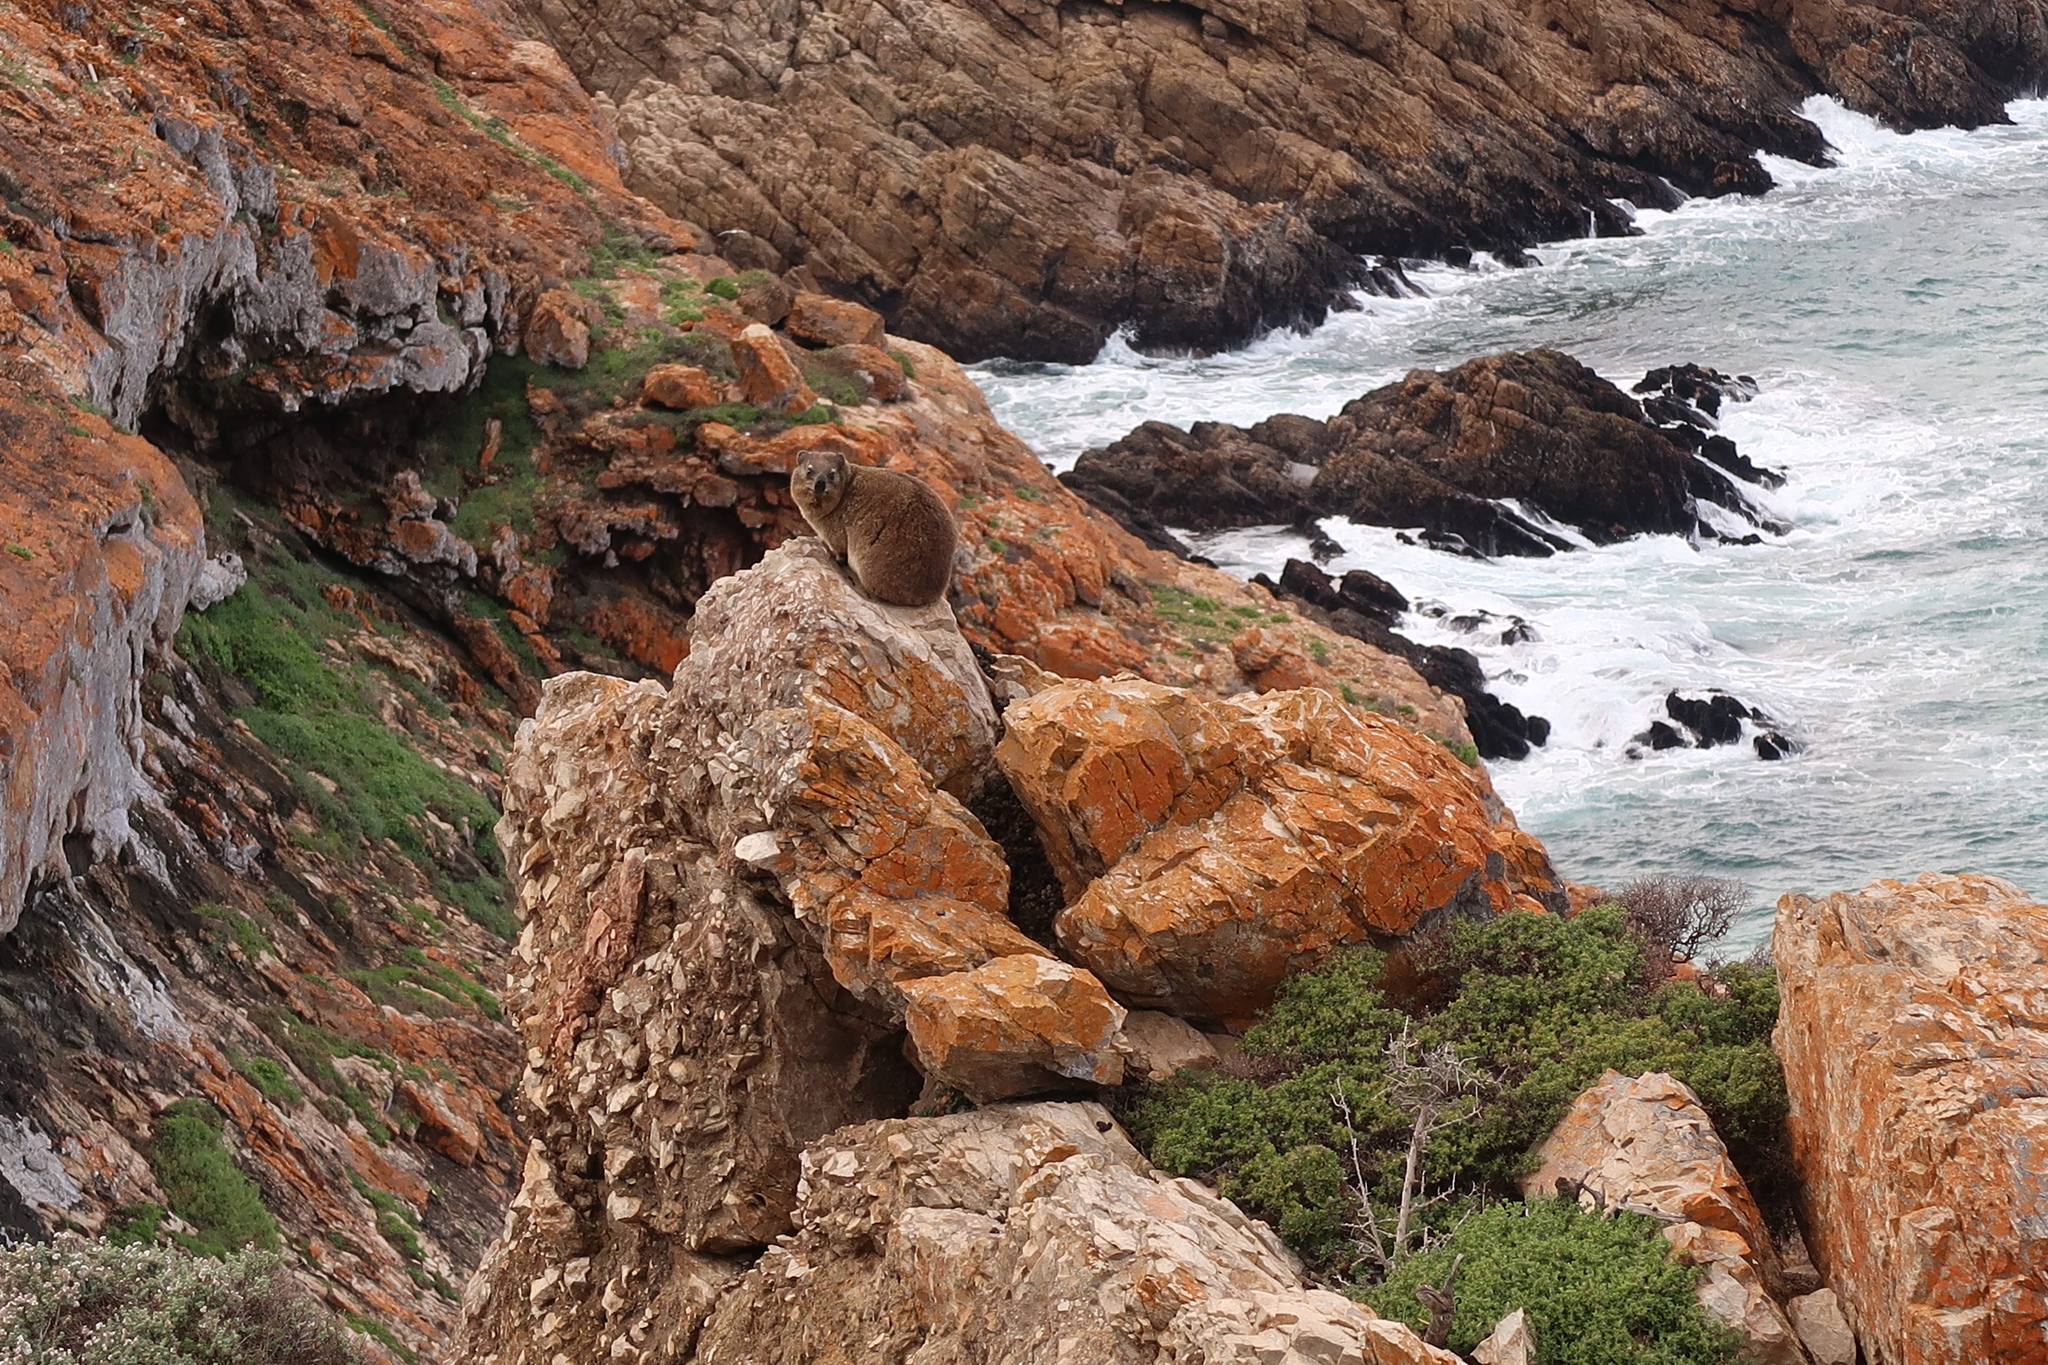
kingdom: Animalia
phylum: Chordata
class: Mammalia
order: Hyracoidea
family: Procaviidae
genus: Procavia
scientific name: Procavia capensis
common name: Rock hyrax
